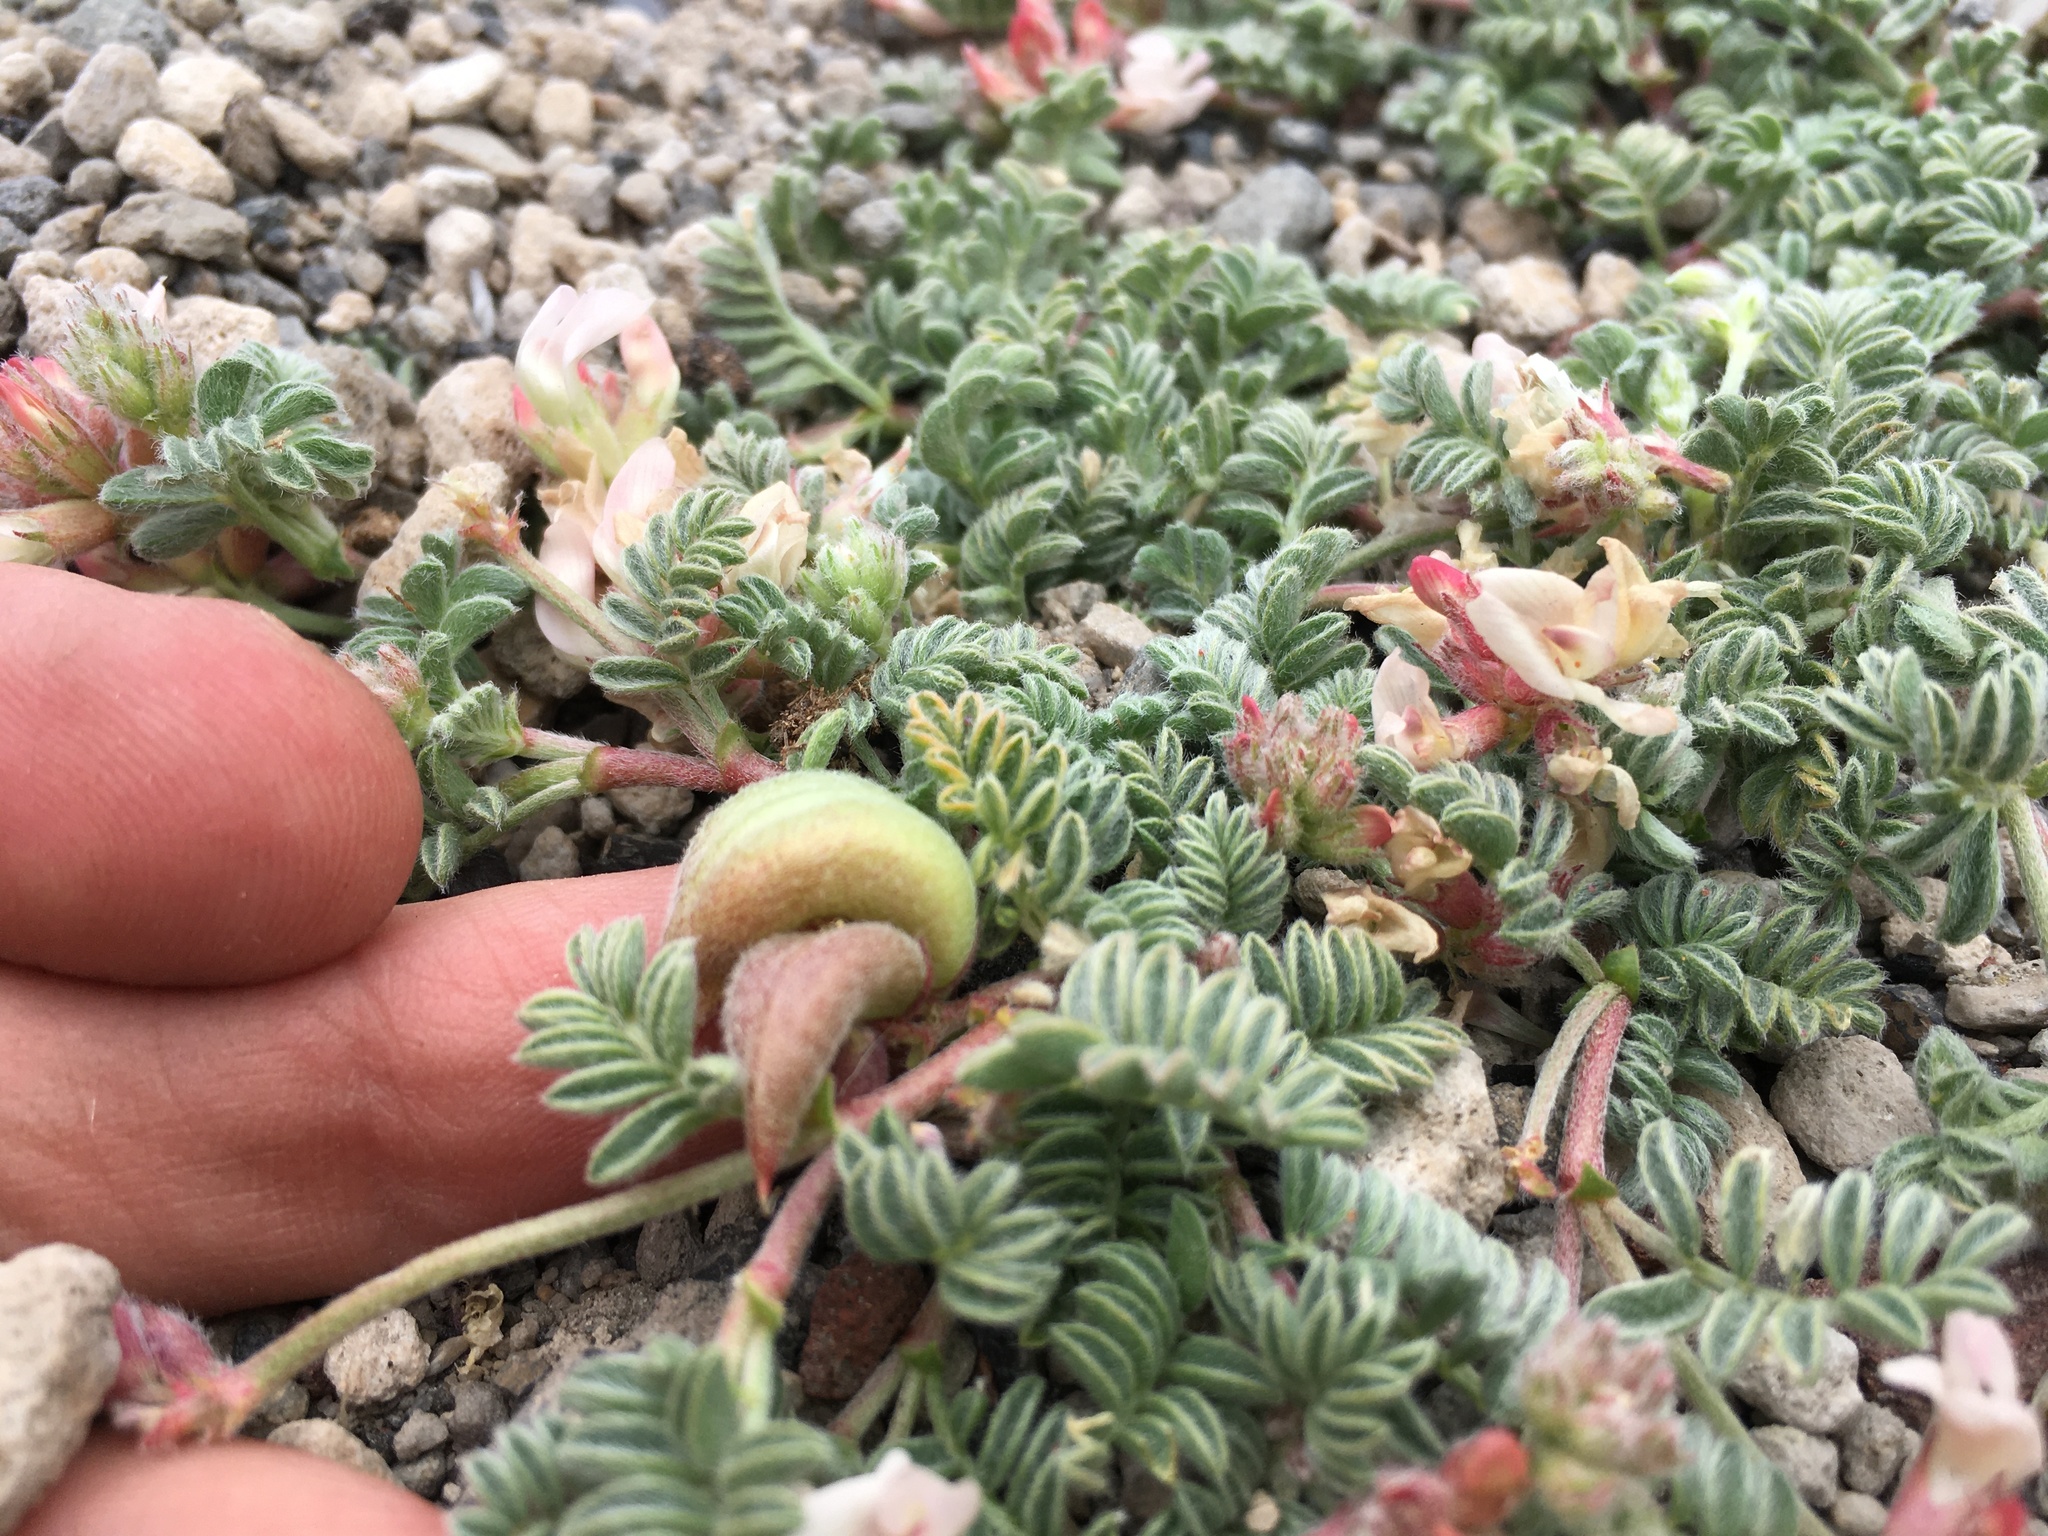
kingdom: Plantae
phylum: Tracheophyta
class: Magnoliopsida
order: Fabales
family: Fabaceae
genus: Astragalus
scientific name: Astragalus monoensis
